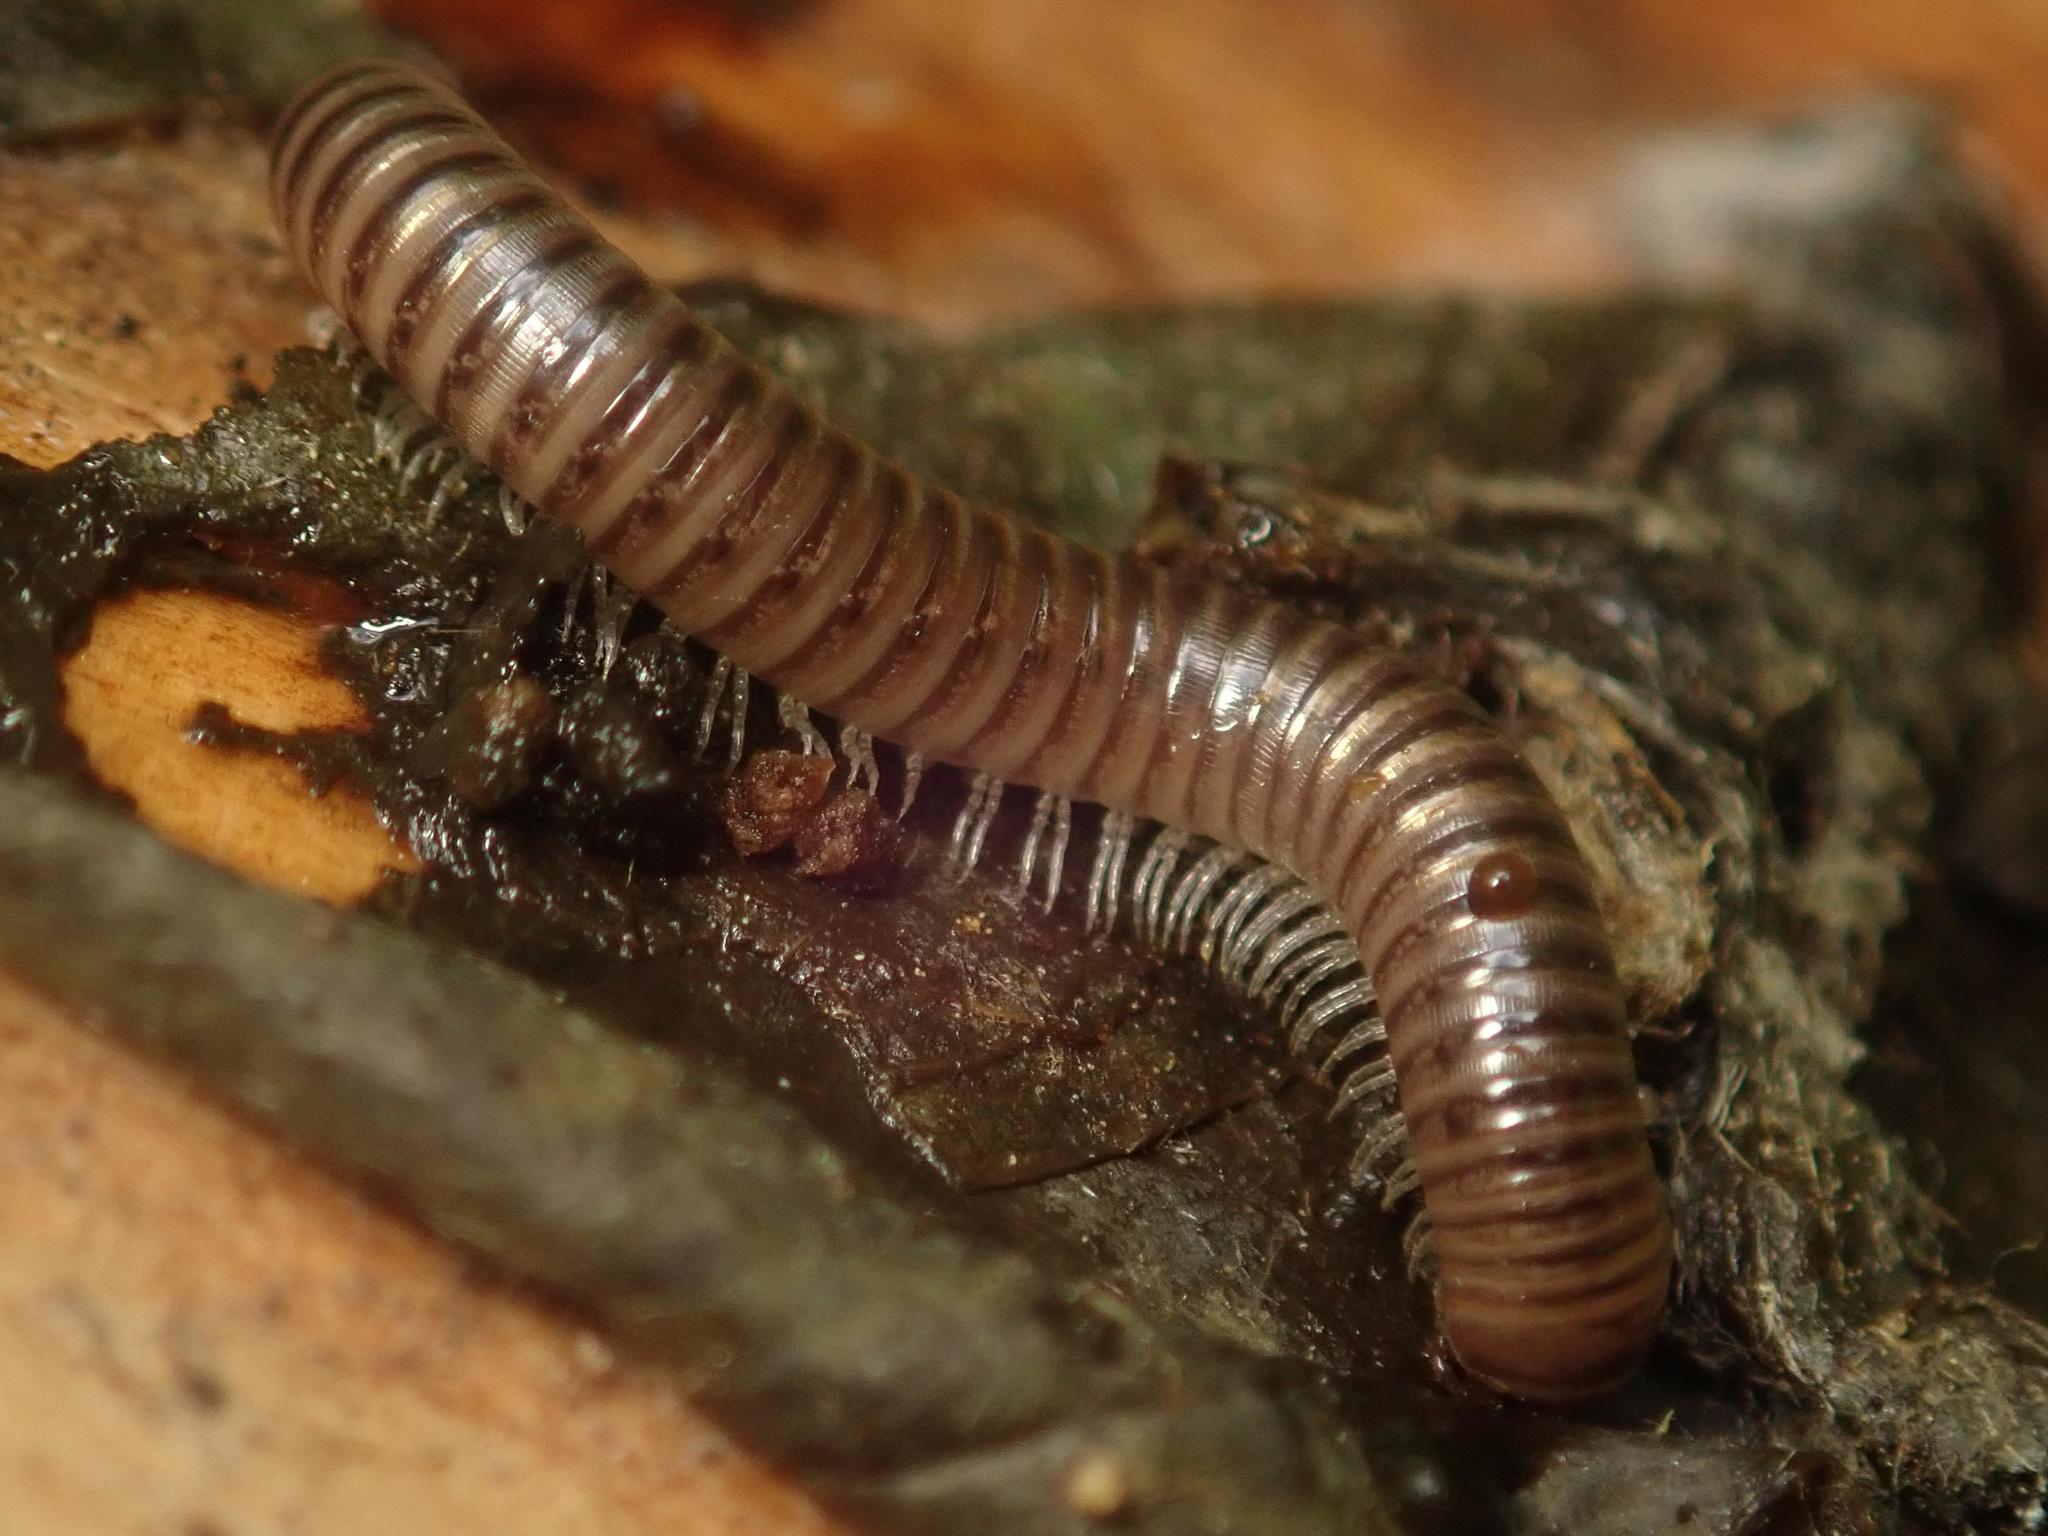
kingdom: Animalia
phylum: Arthropoda
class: Diplopoda
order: Julida
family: Julidae
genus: Cylindroiulus
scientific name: Cylindroiulus caeruleocinctus
